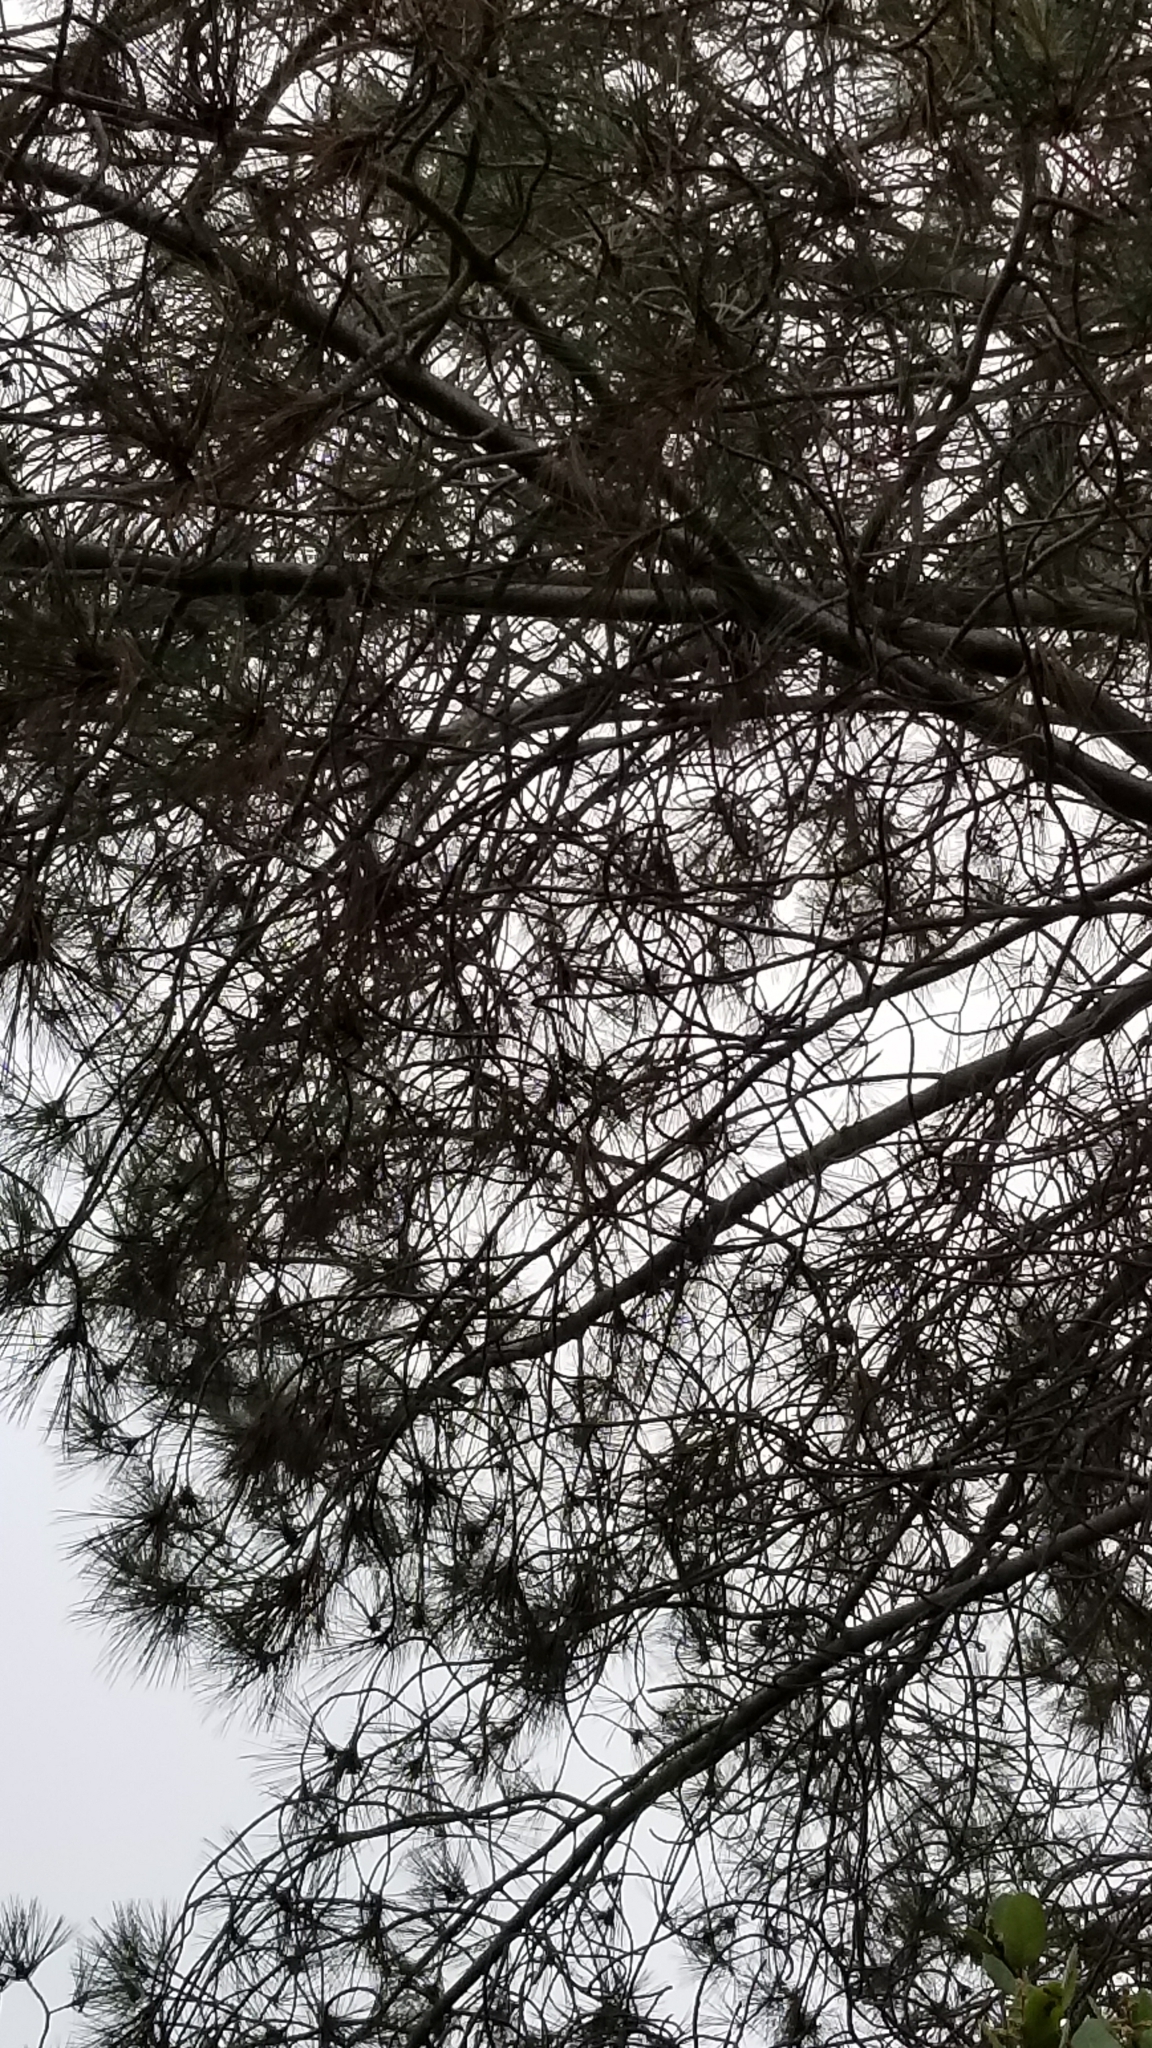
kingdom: Plantae
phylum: Tracheophyta
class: Pinopsida
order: Pinales
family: Pinaceae
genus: Pinus
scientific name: Pinus torreyana
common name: Torrey pine
